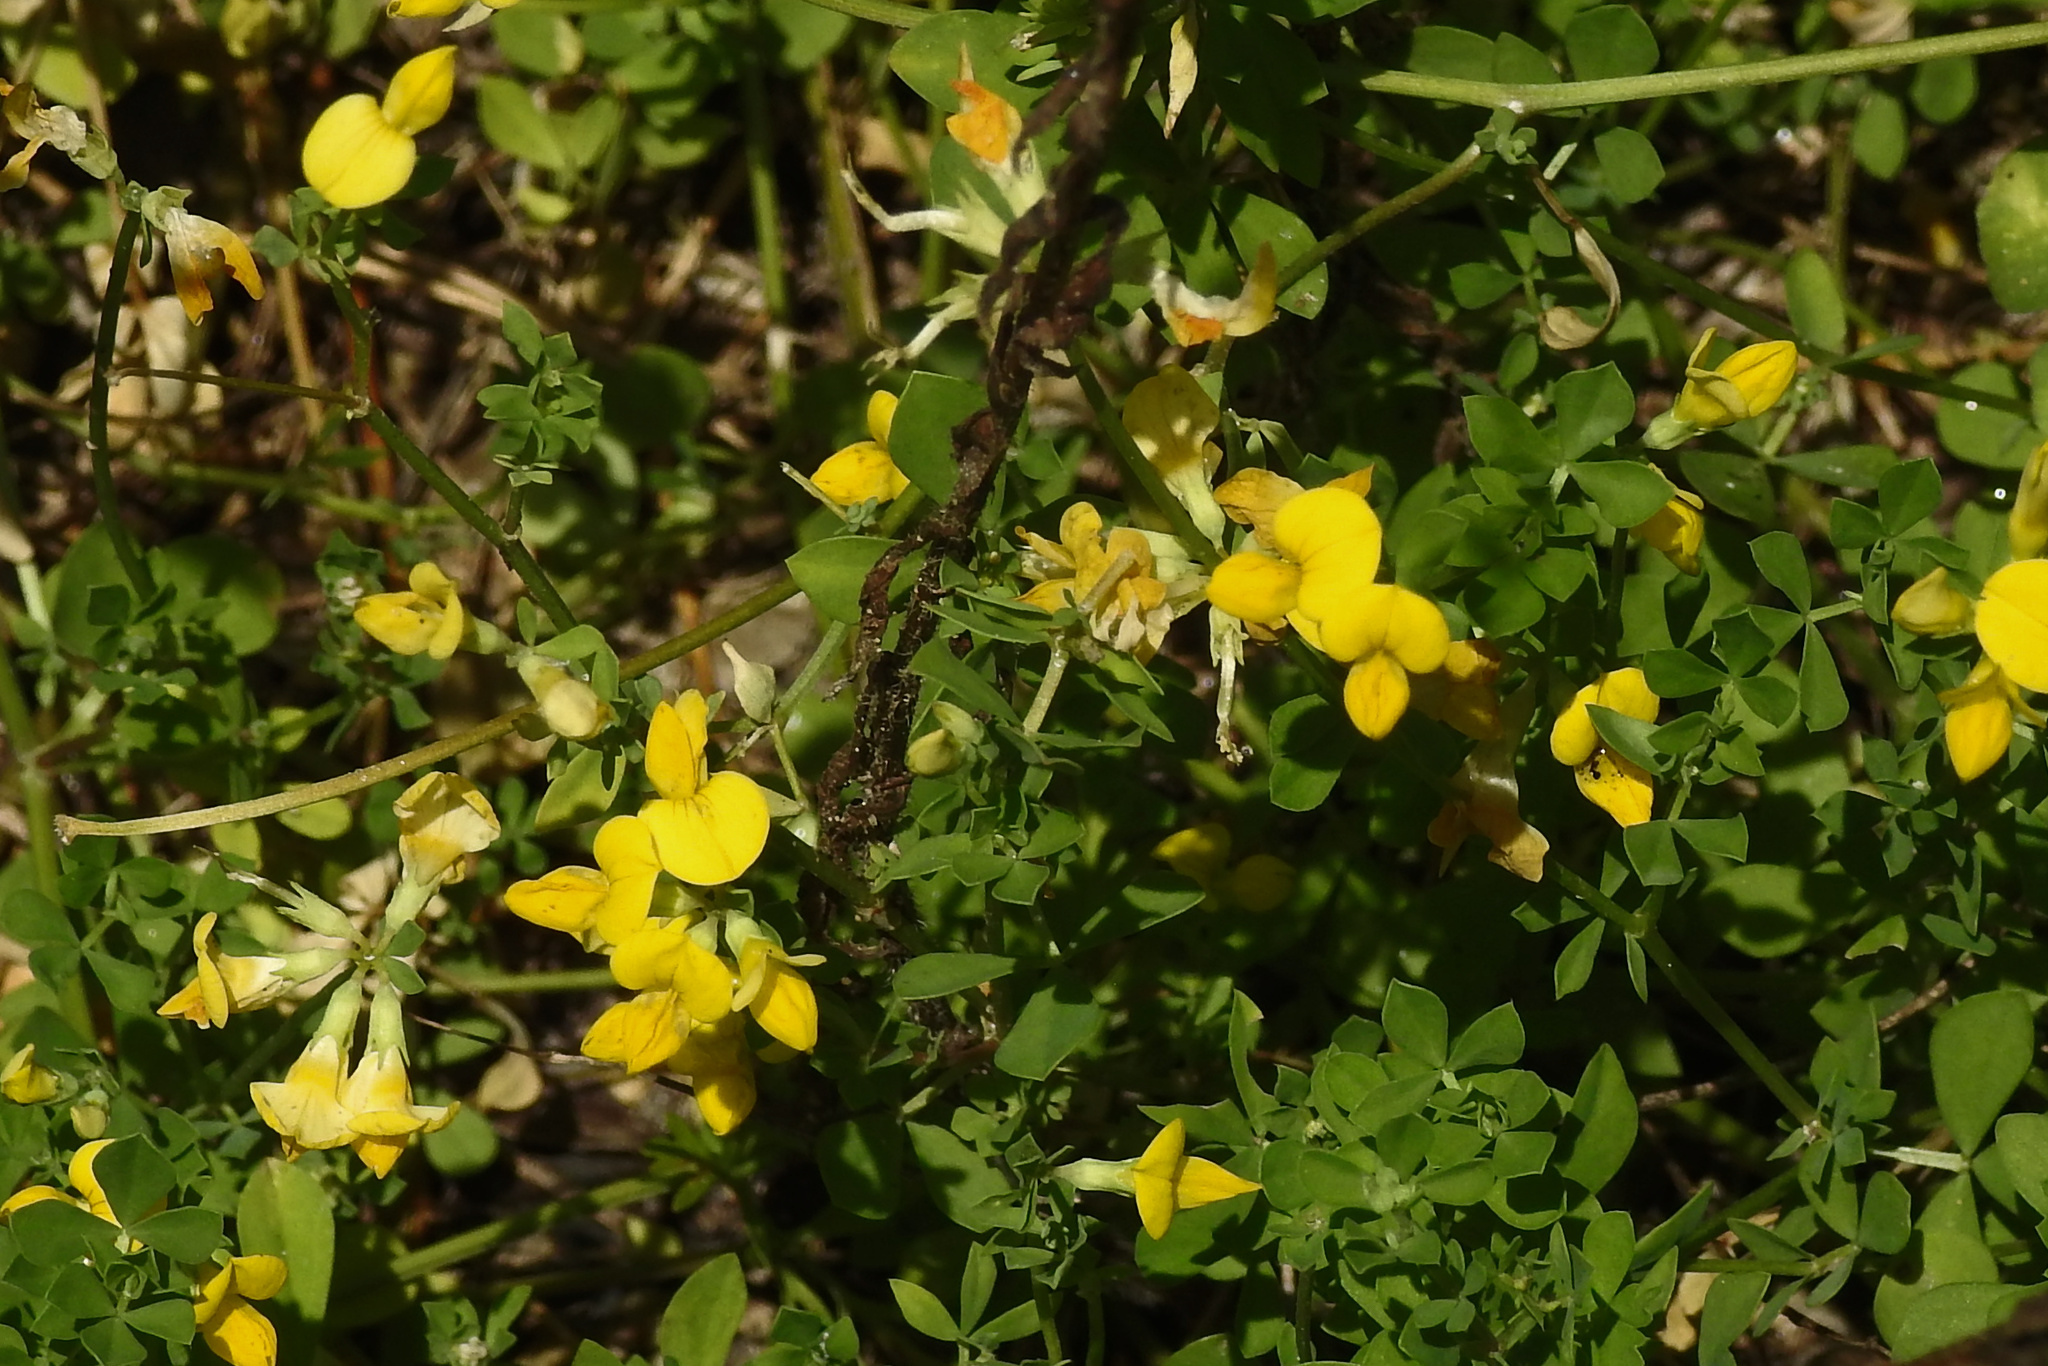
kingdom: Plantae
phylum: Tracheophyta
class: Magnoliopsida
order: Fabales
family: Fabaceae
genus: Lotus
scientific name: Lotus corniculatus
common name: Common bird's-foot-trefoil
